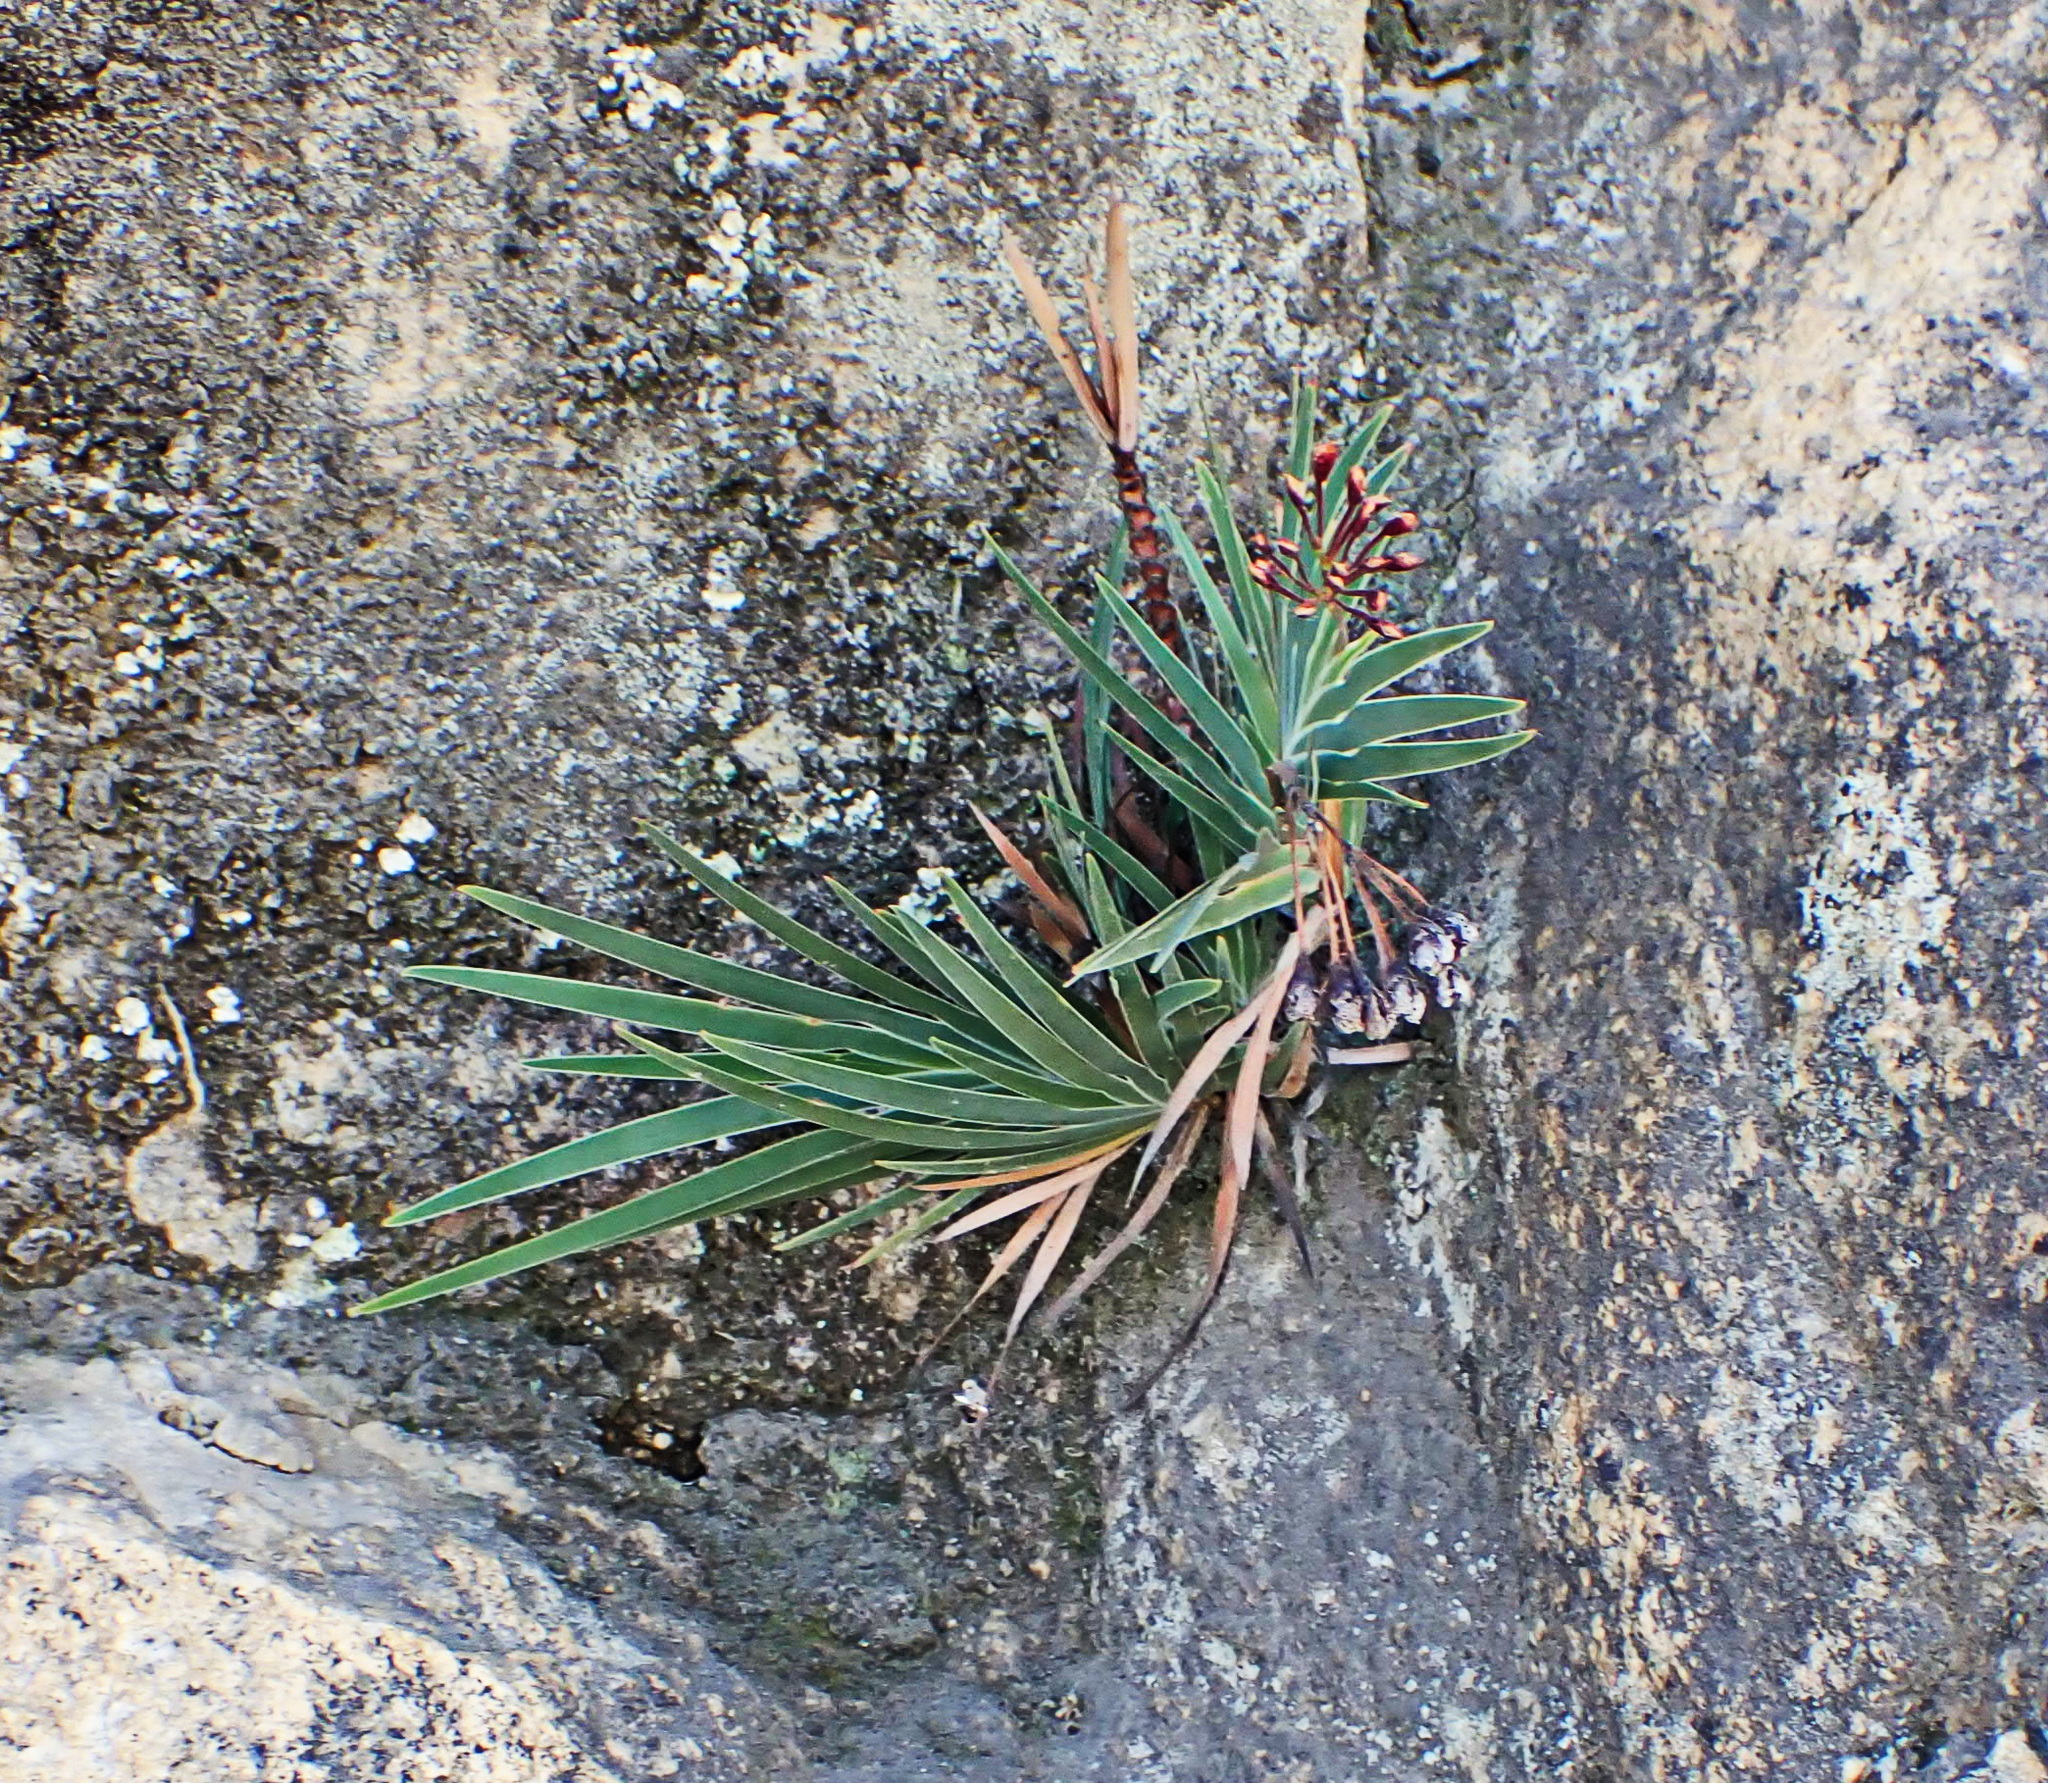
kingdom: Plantae
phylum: Tracheophyta
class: Liliopsida
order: Asparagales
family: Iridaceae
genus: Nivenia
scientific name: Nivenia binata
